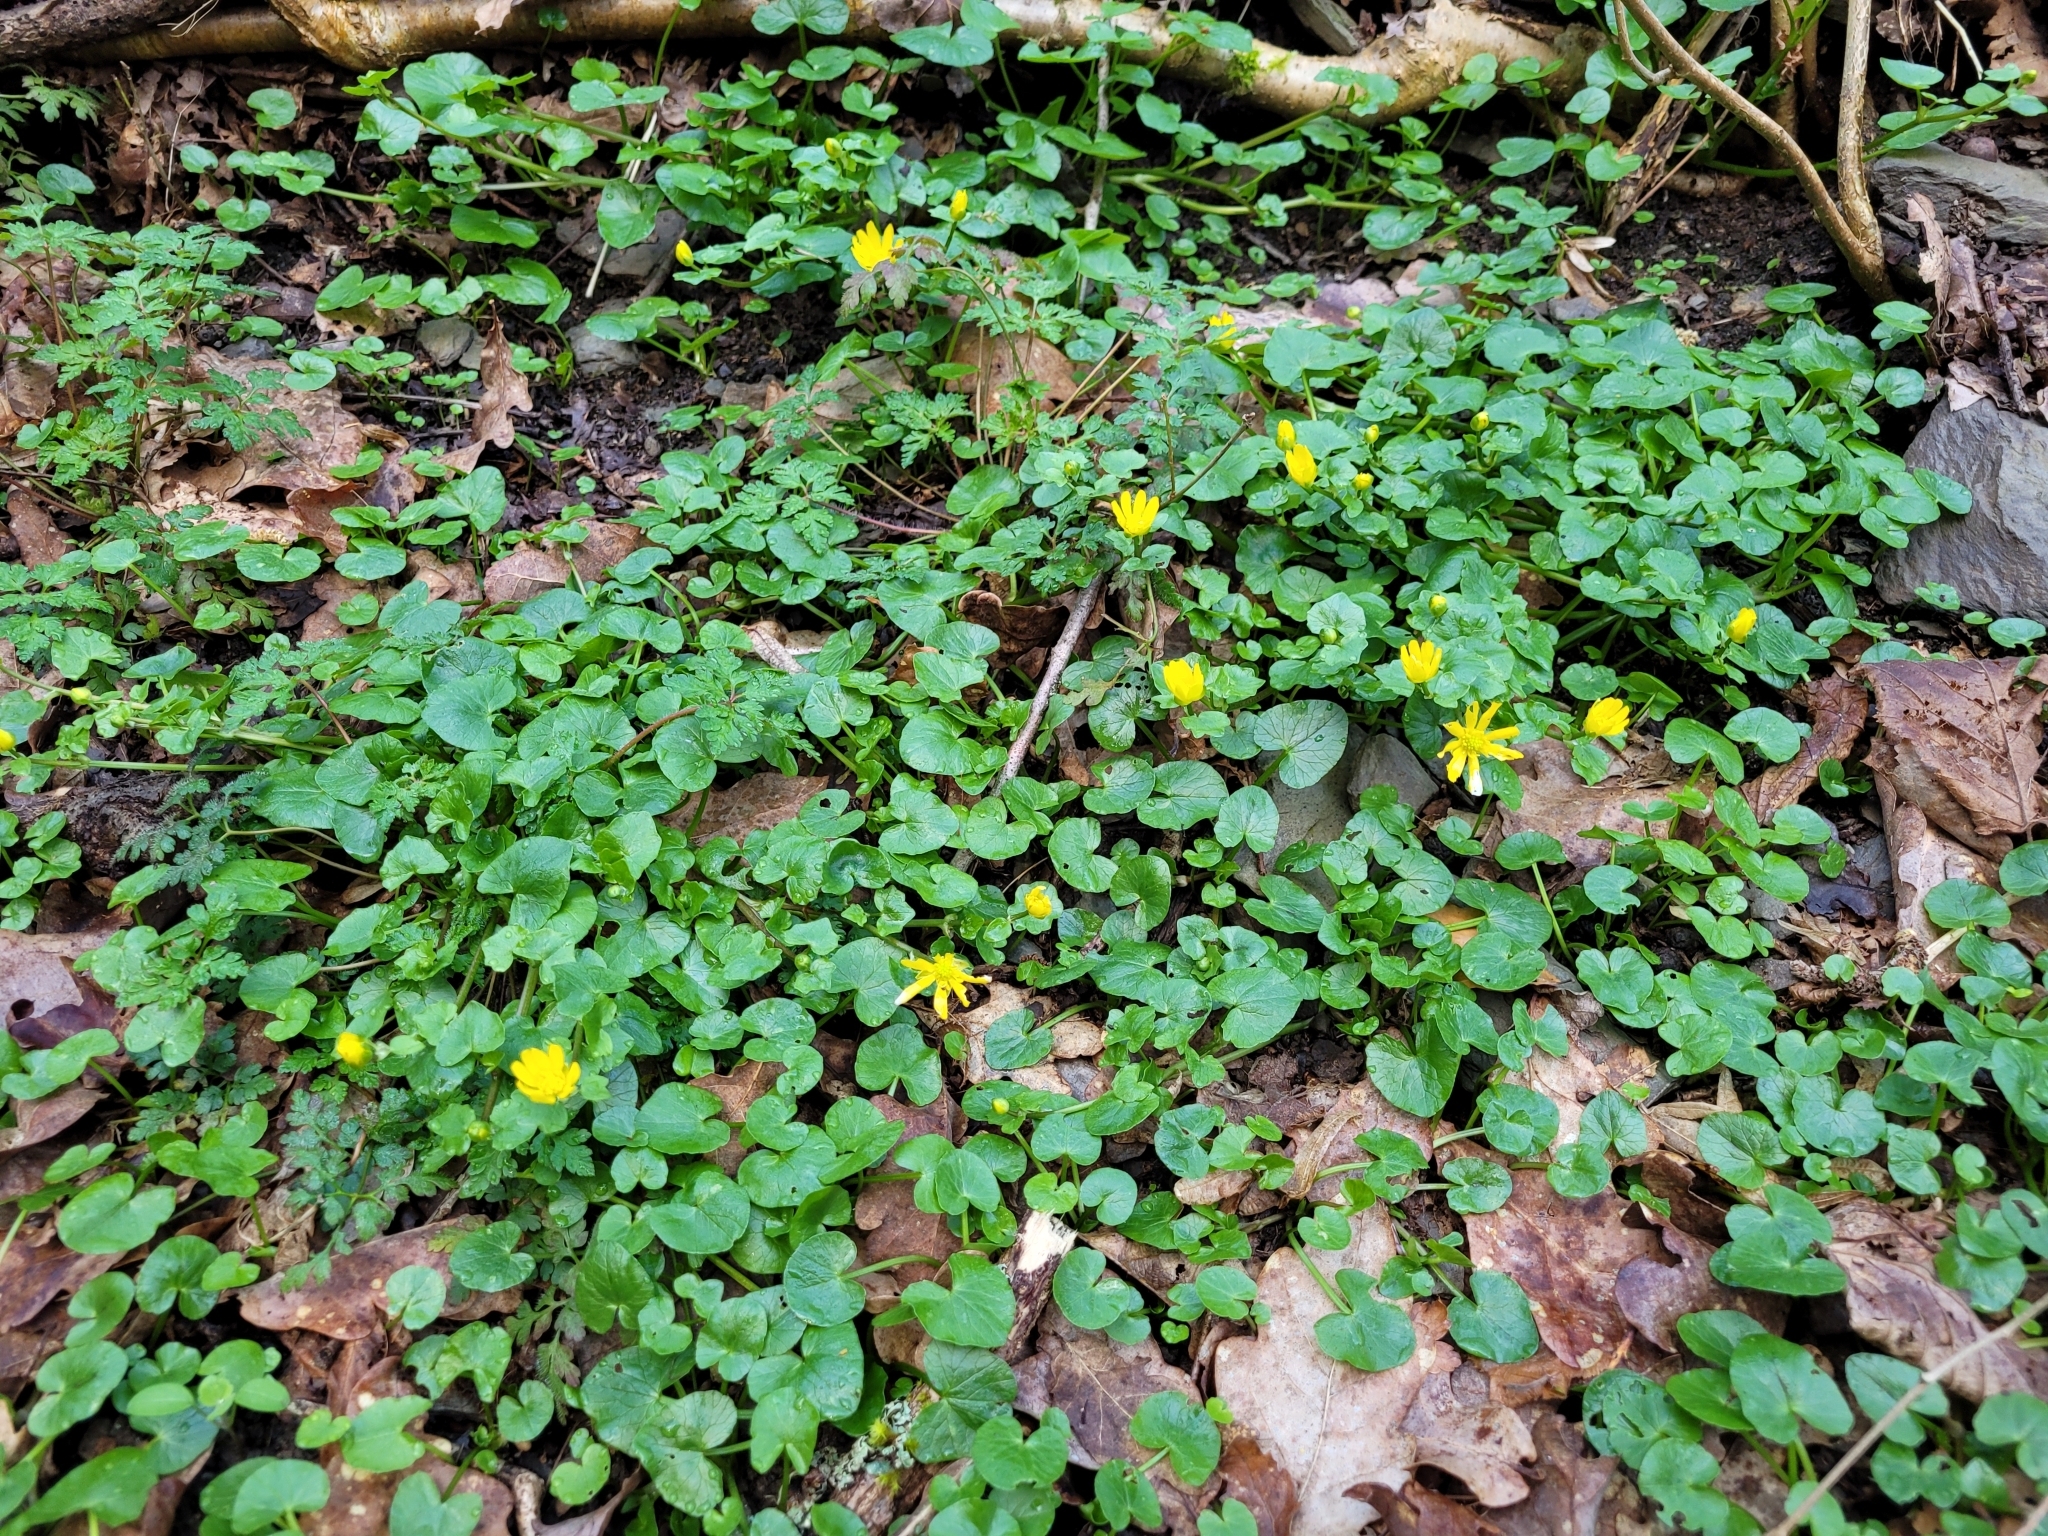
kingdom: Plantae
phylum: Tracheophyta
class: Magnoliopsida
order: Ranunculales
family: Ranunculaceae
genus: Ficaria
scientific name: Ficaria verna
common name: Lesser celandine
